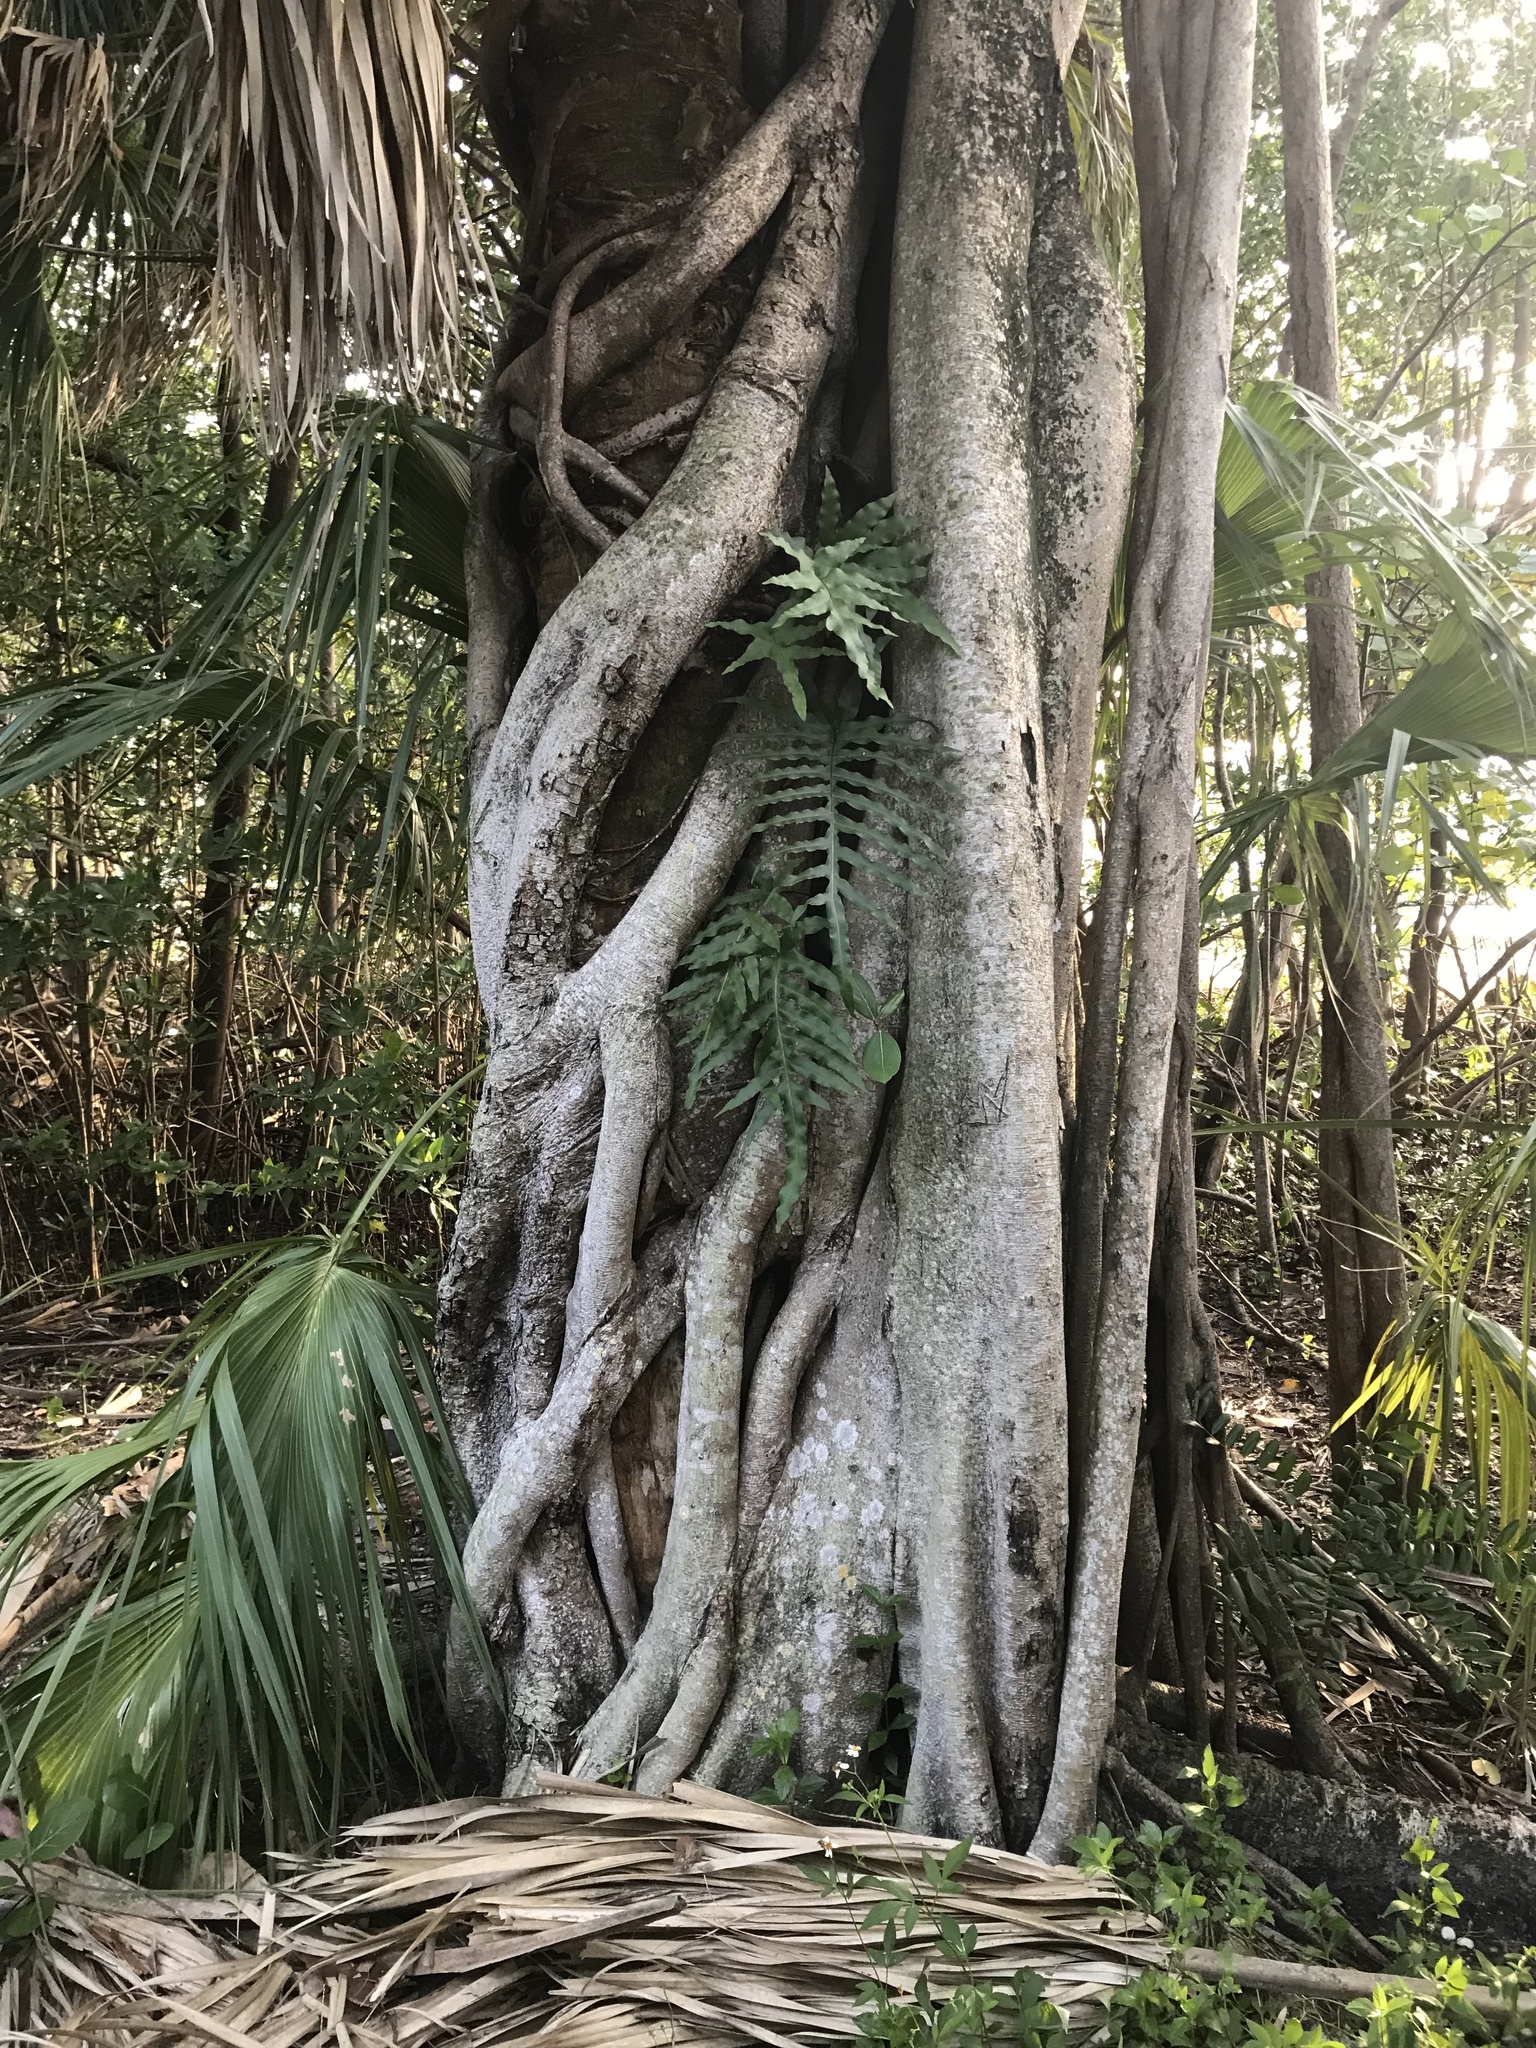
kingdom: Plantae
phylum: Tracheophyta
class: Magnoliopsida
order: Rosales
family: Moraceae
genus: Ficus
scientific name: Ficus aurea
